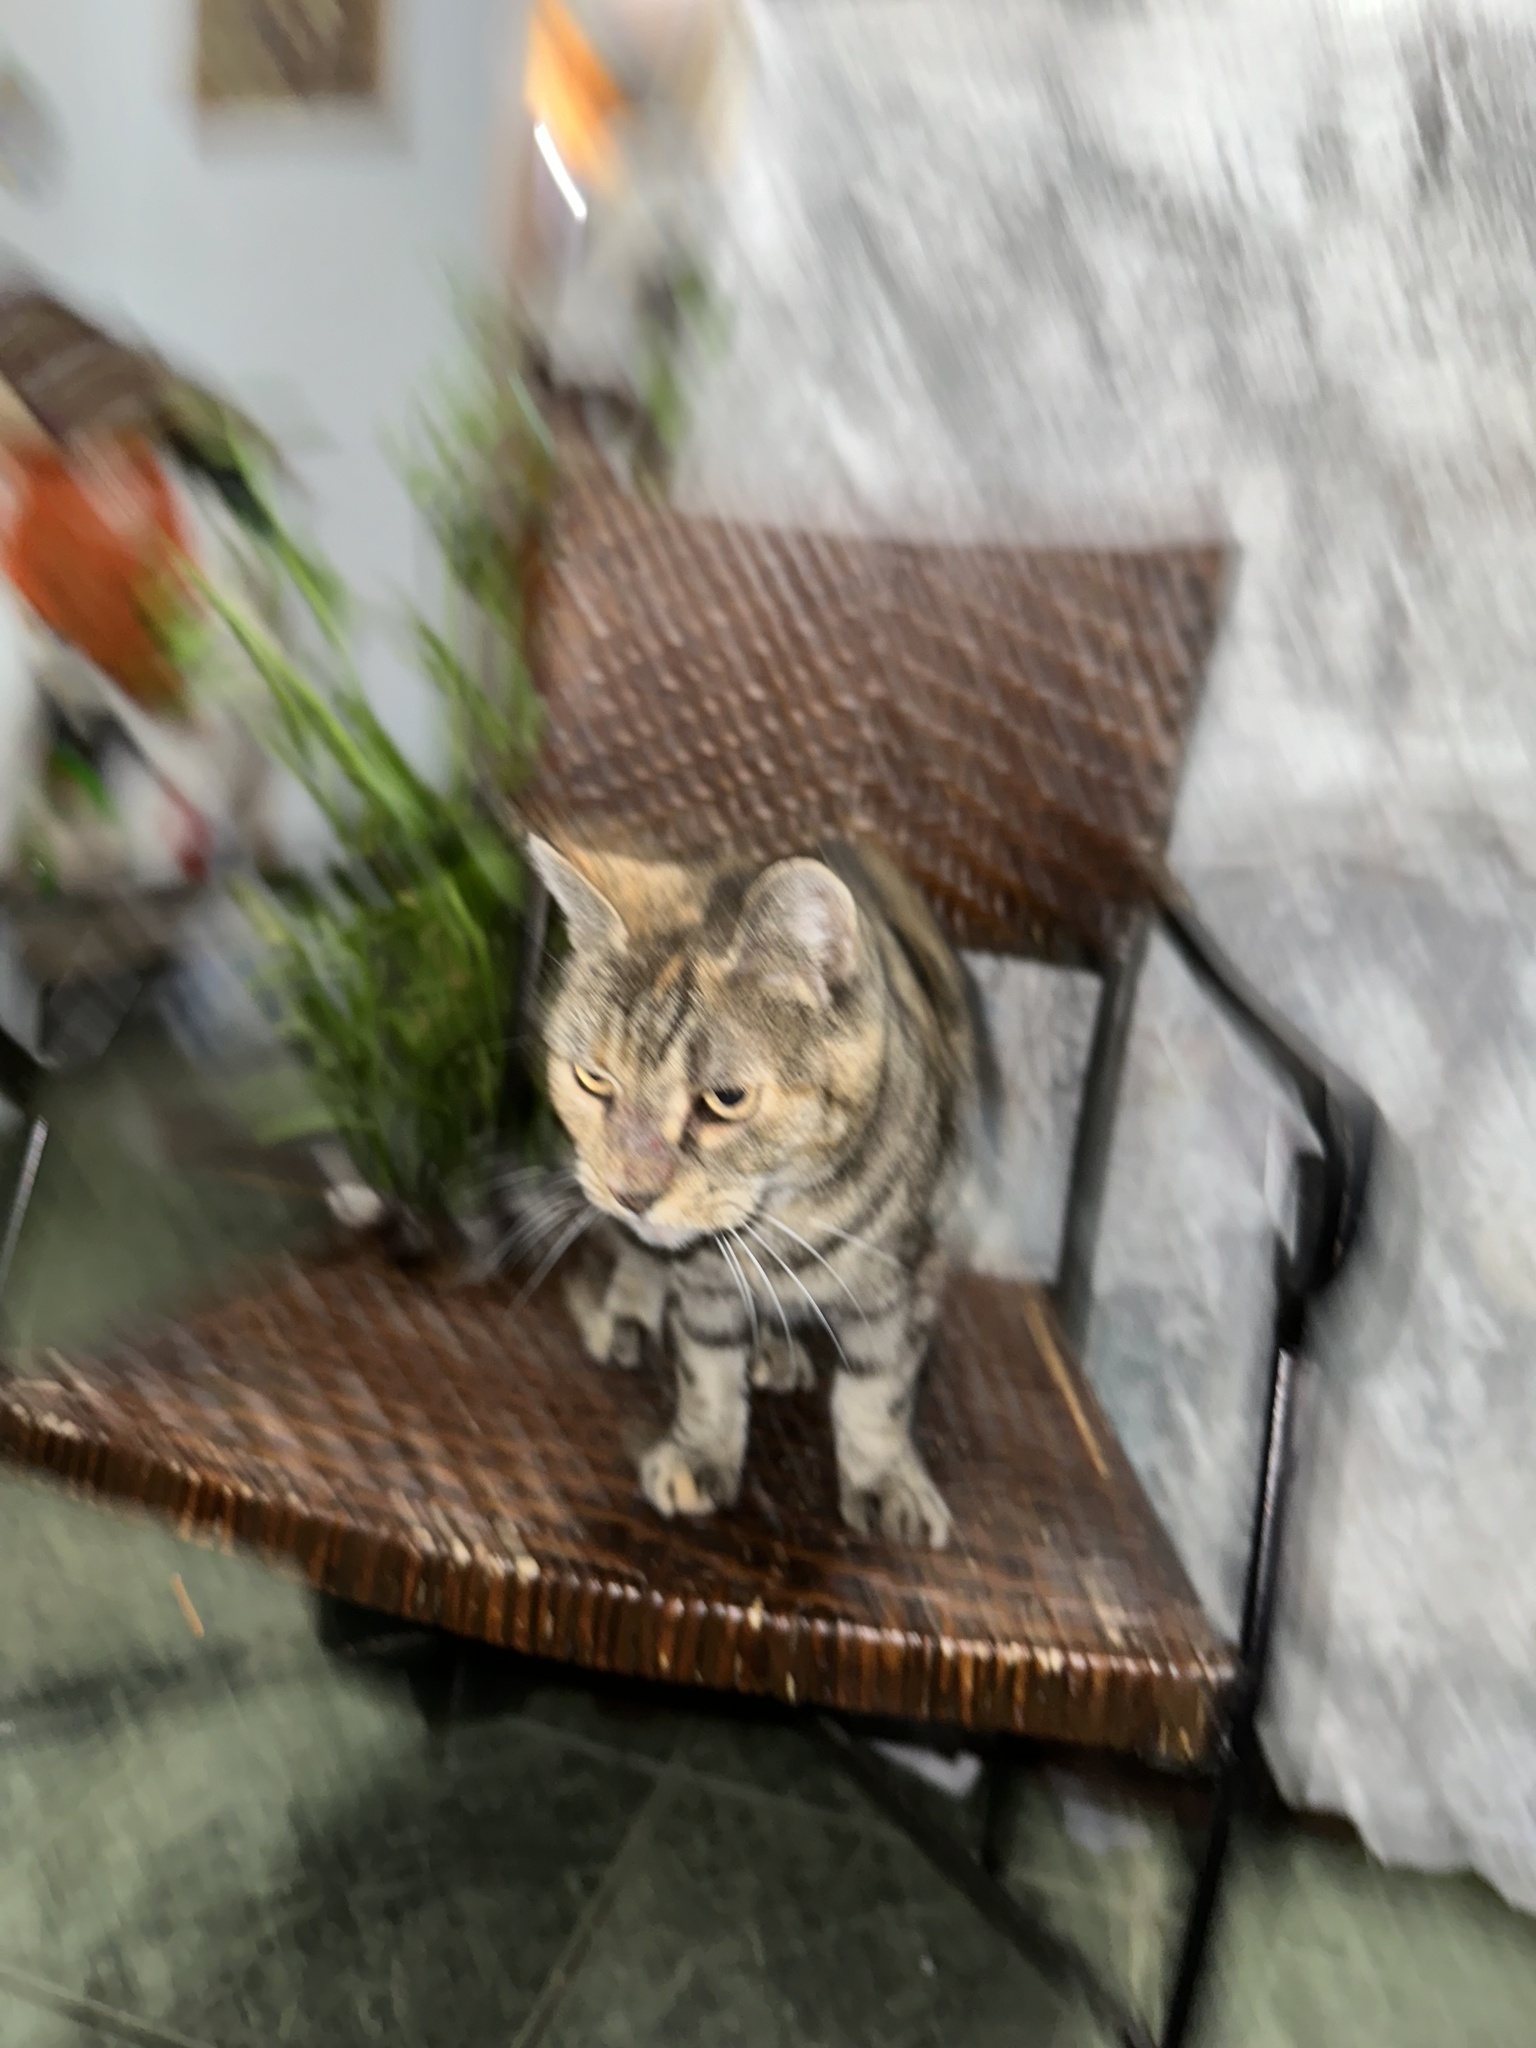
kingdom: Animalia
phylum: Chordata
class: Mammalia
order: Carnivora
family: Felidae
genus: Felis
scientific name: Felis catus
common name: Domestic cat
